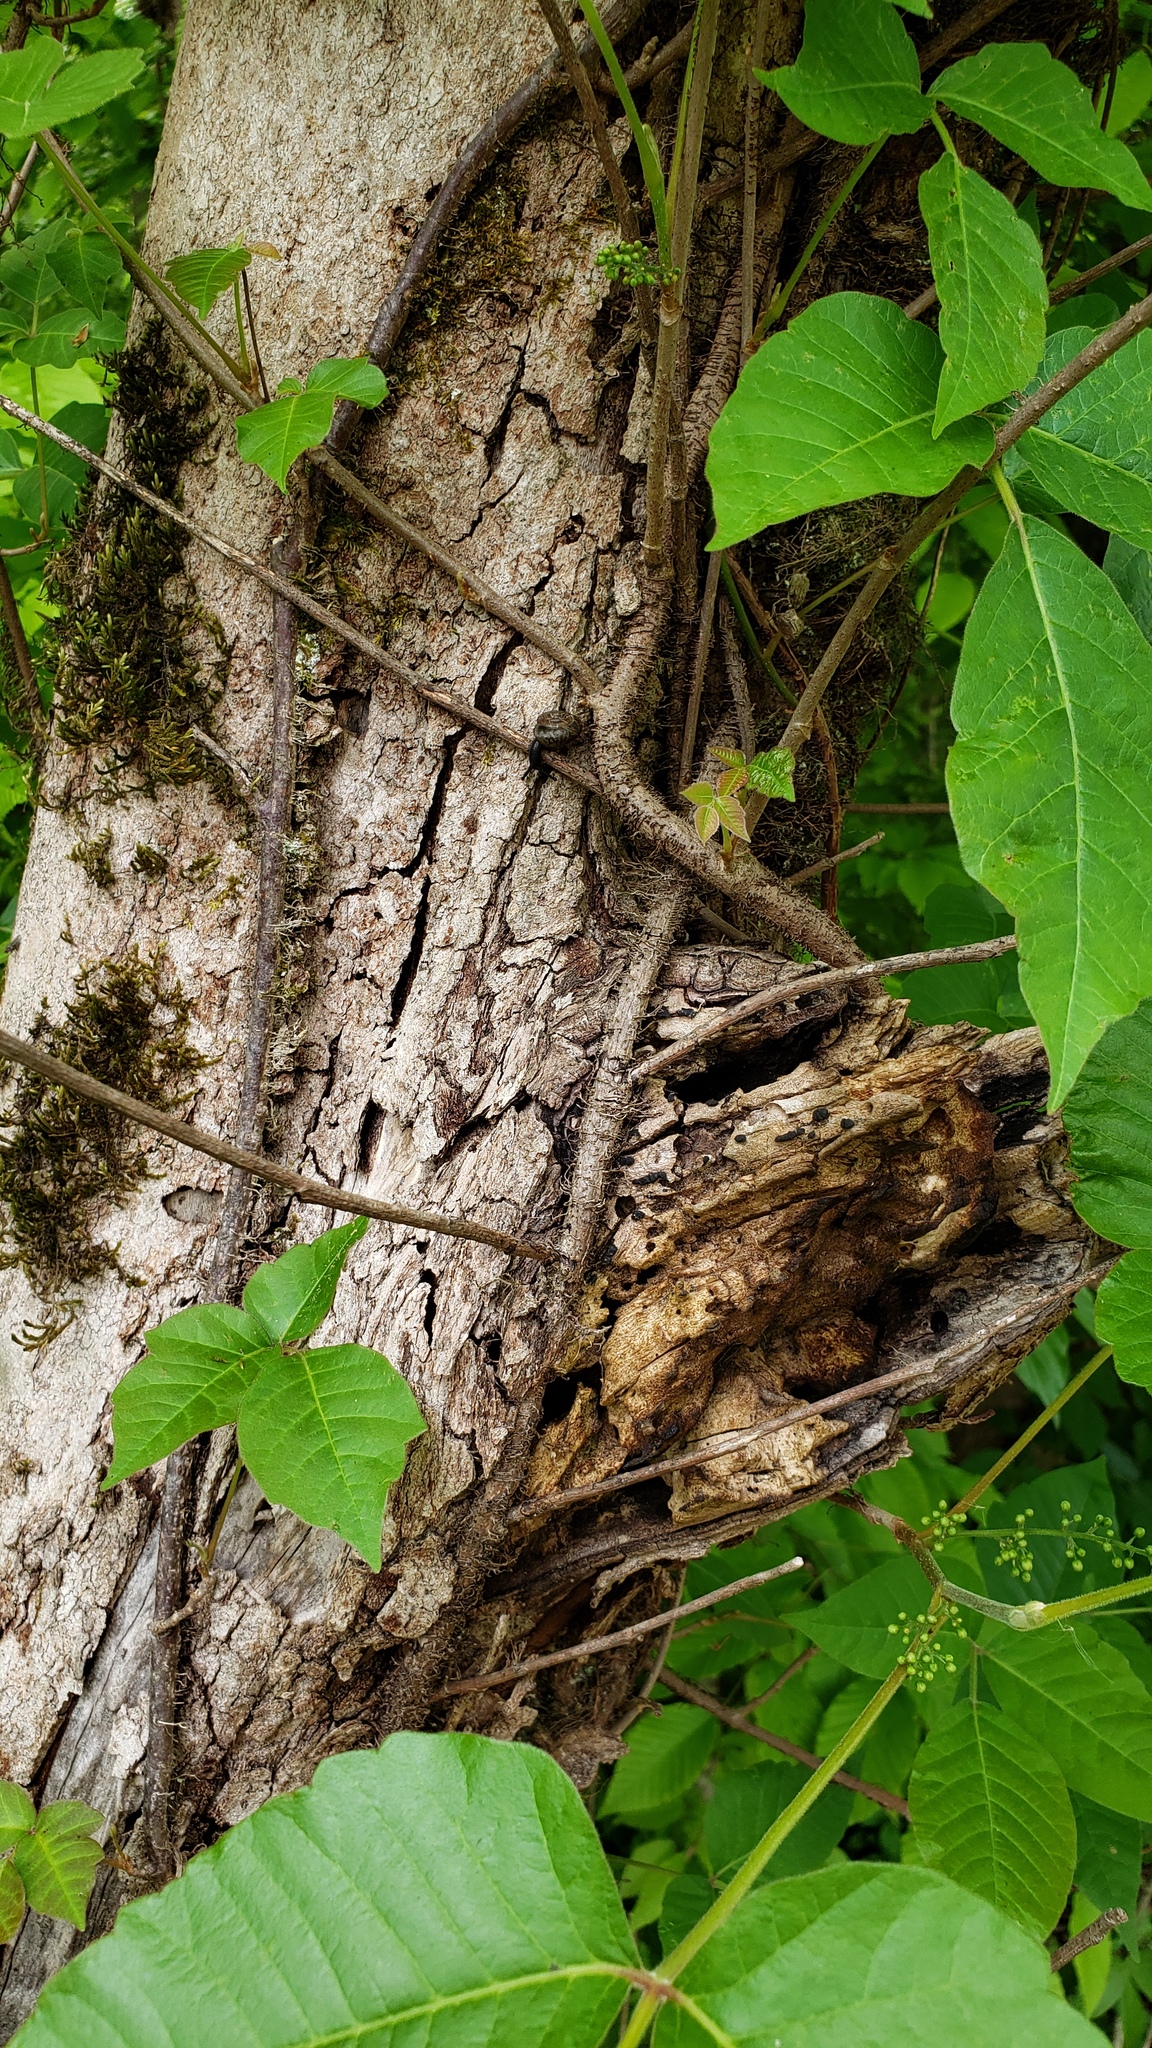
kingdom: Plantae
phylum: Tracheophyta
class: Magnoliopsida
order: Sapindales
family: Anacardiaceae
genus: Toxicodendron
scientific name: Toxicodendron radicans
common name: Poison ivy
